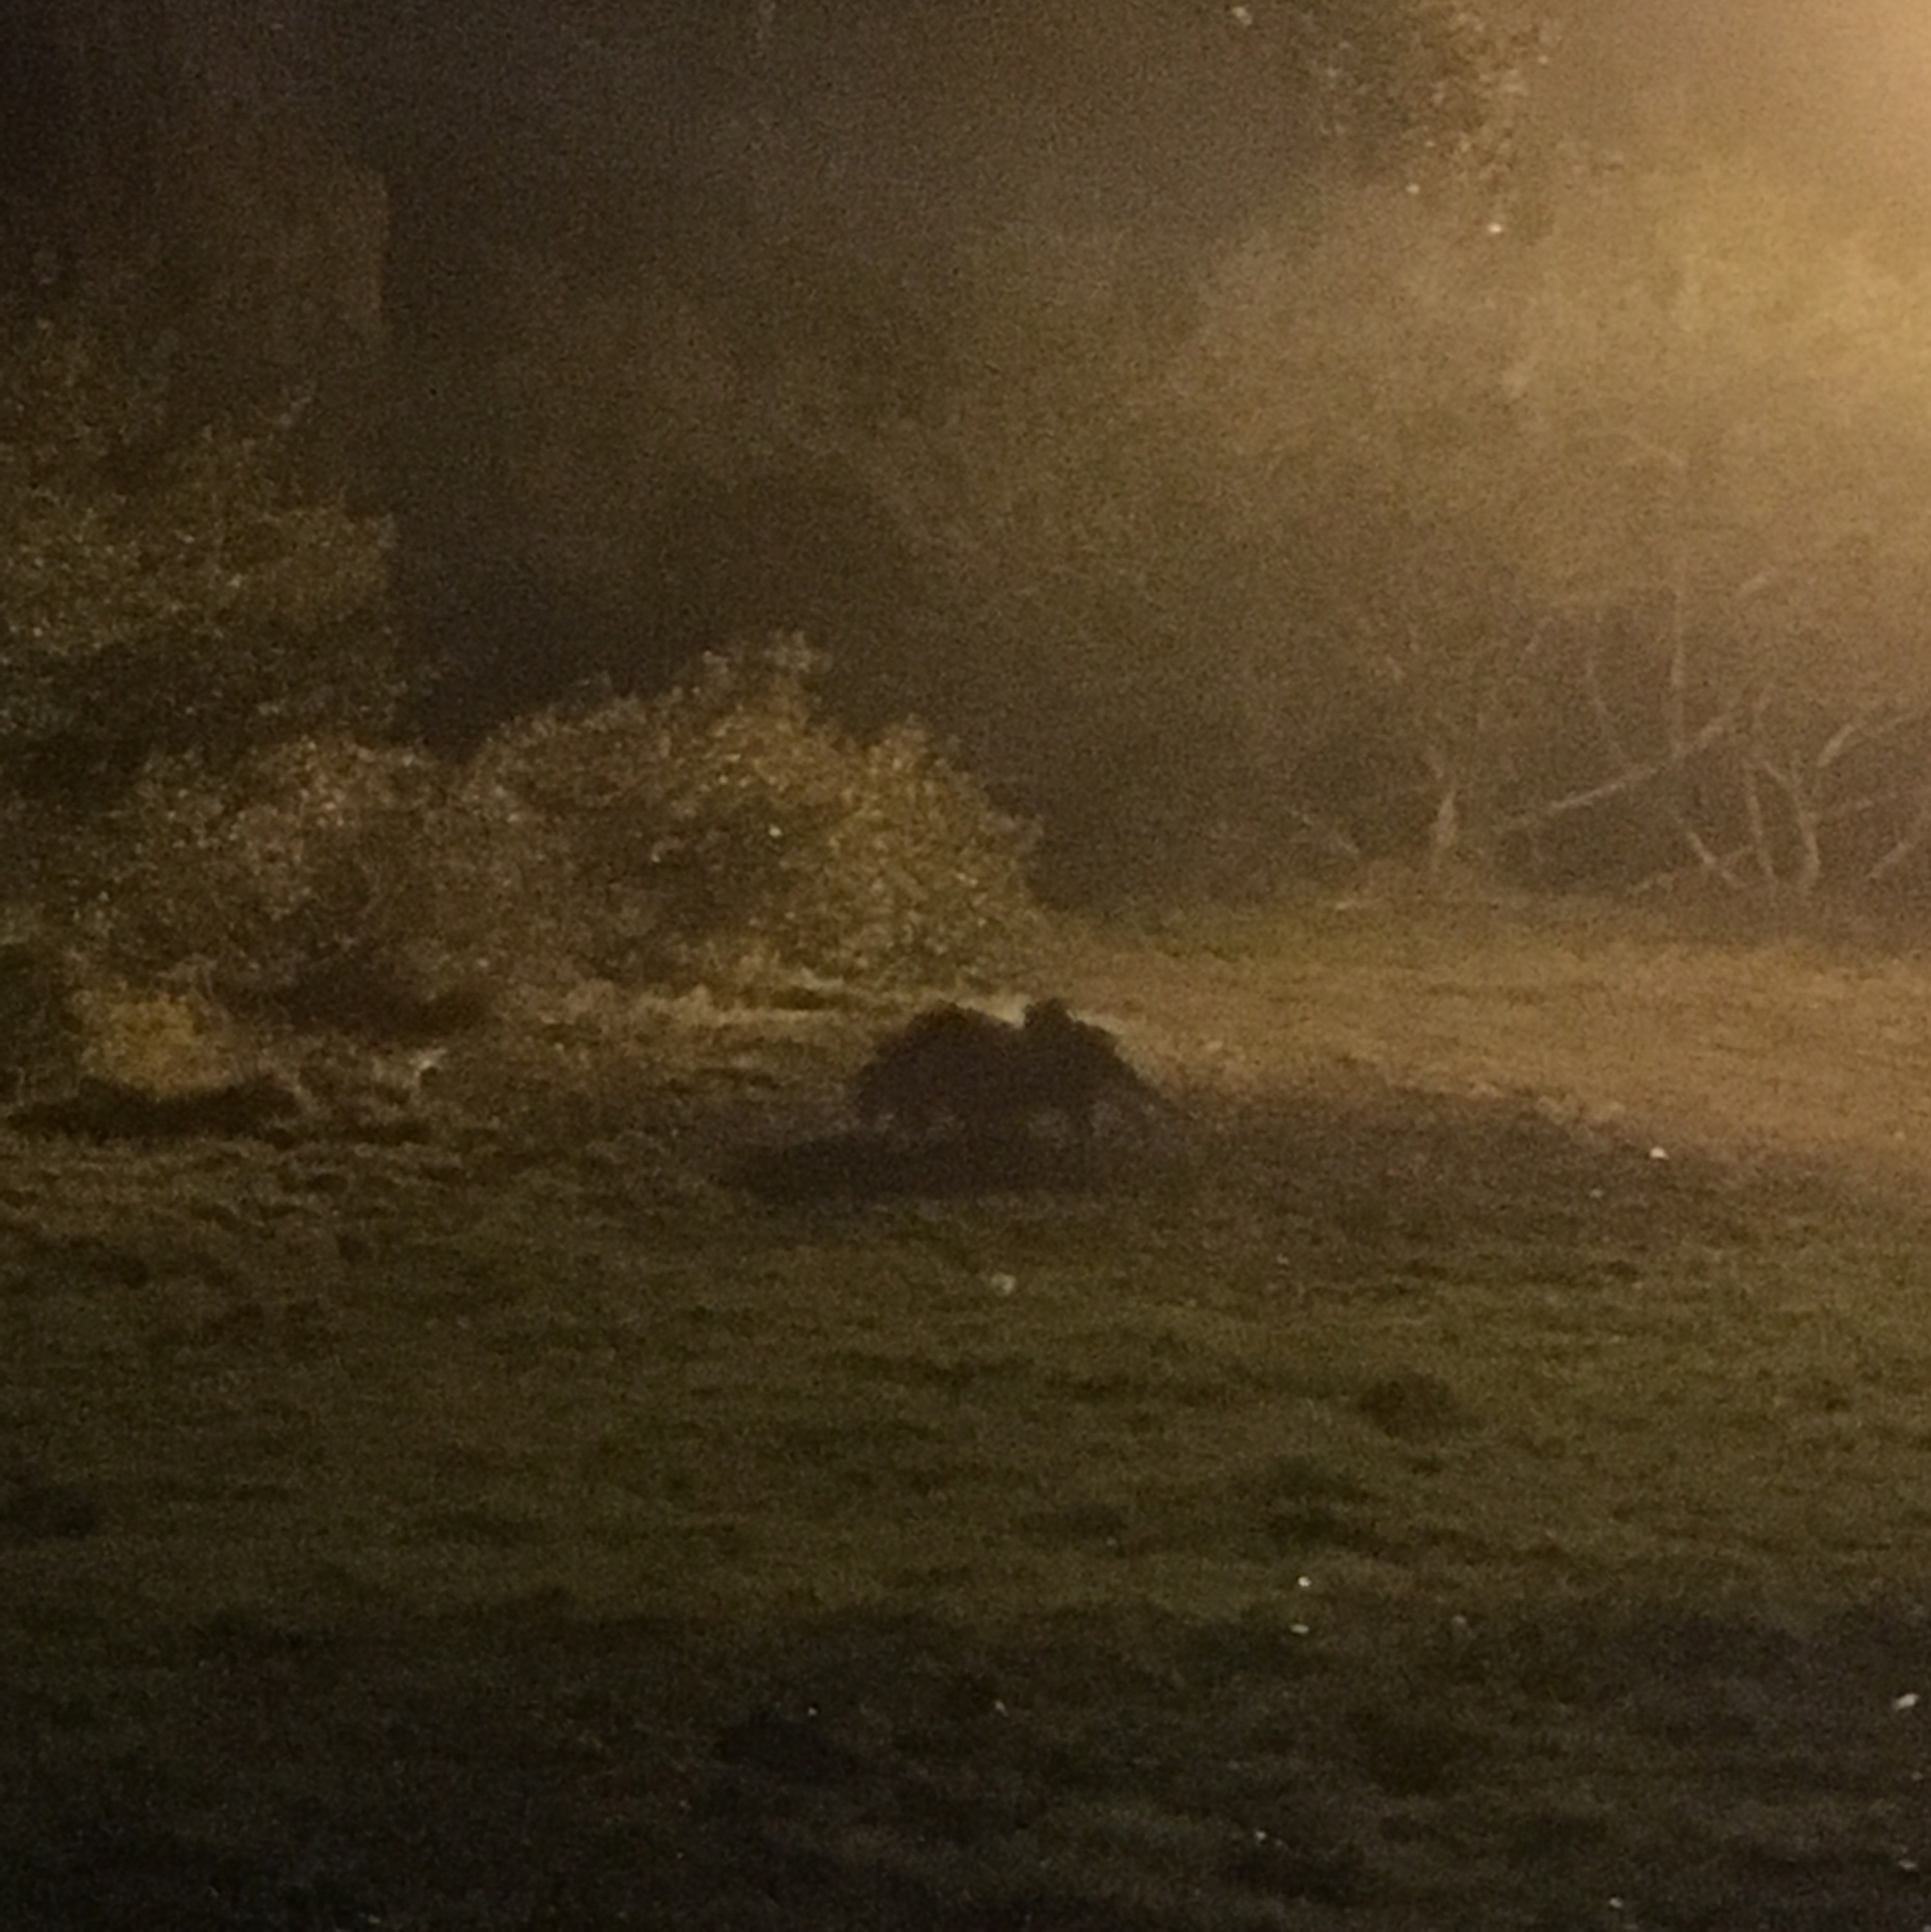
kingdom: Animalia
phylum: Chordata
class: Mammalia
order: Carnivora
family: Procyonidae
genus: Procyon
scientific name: Procyon lotor
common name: Raccoon
